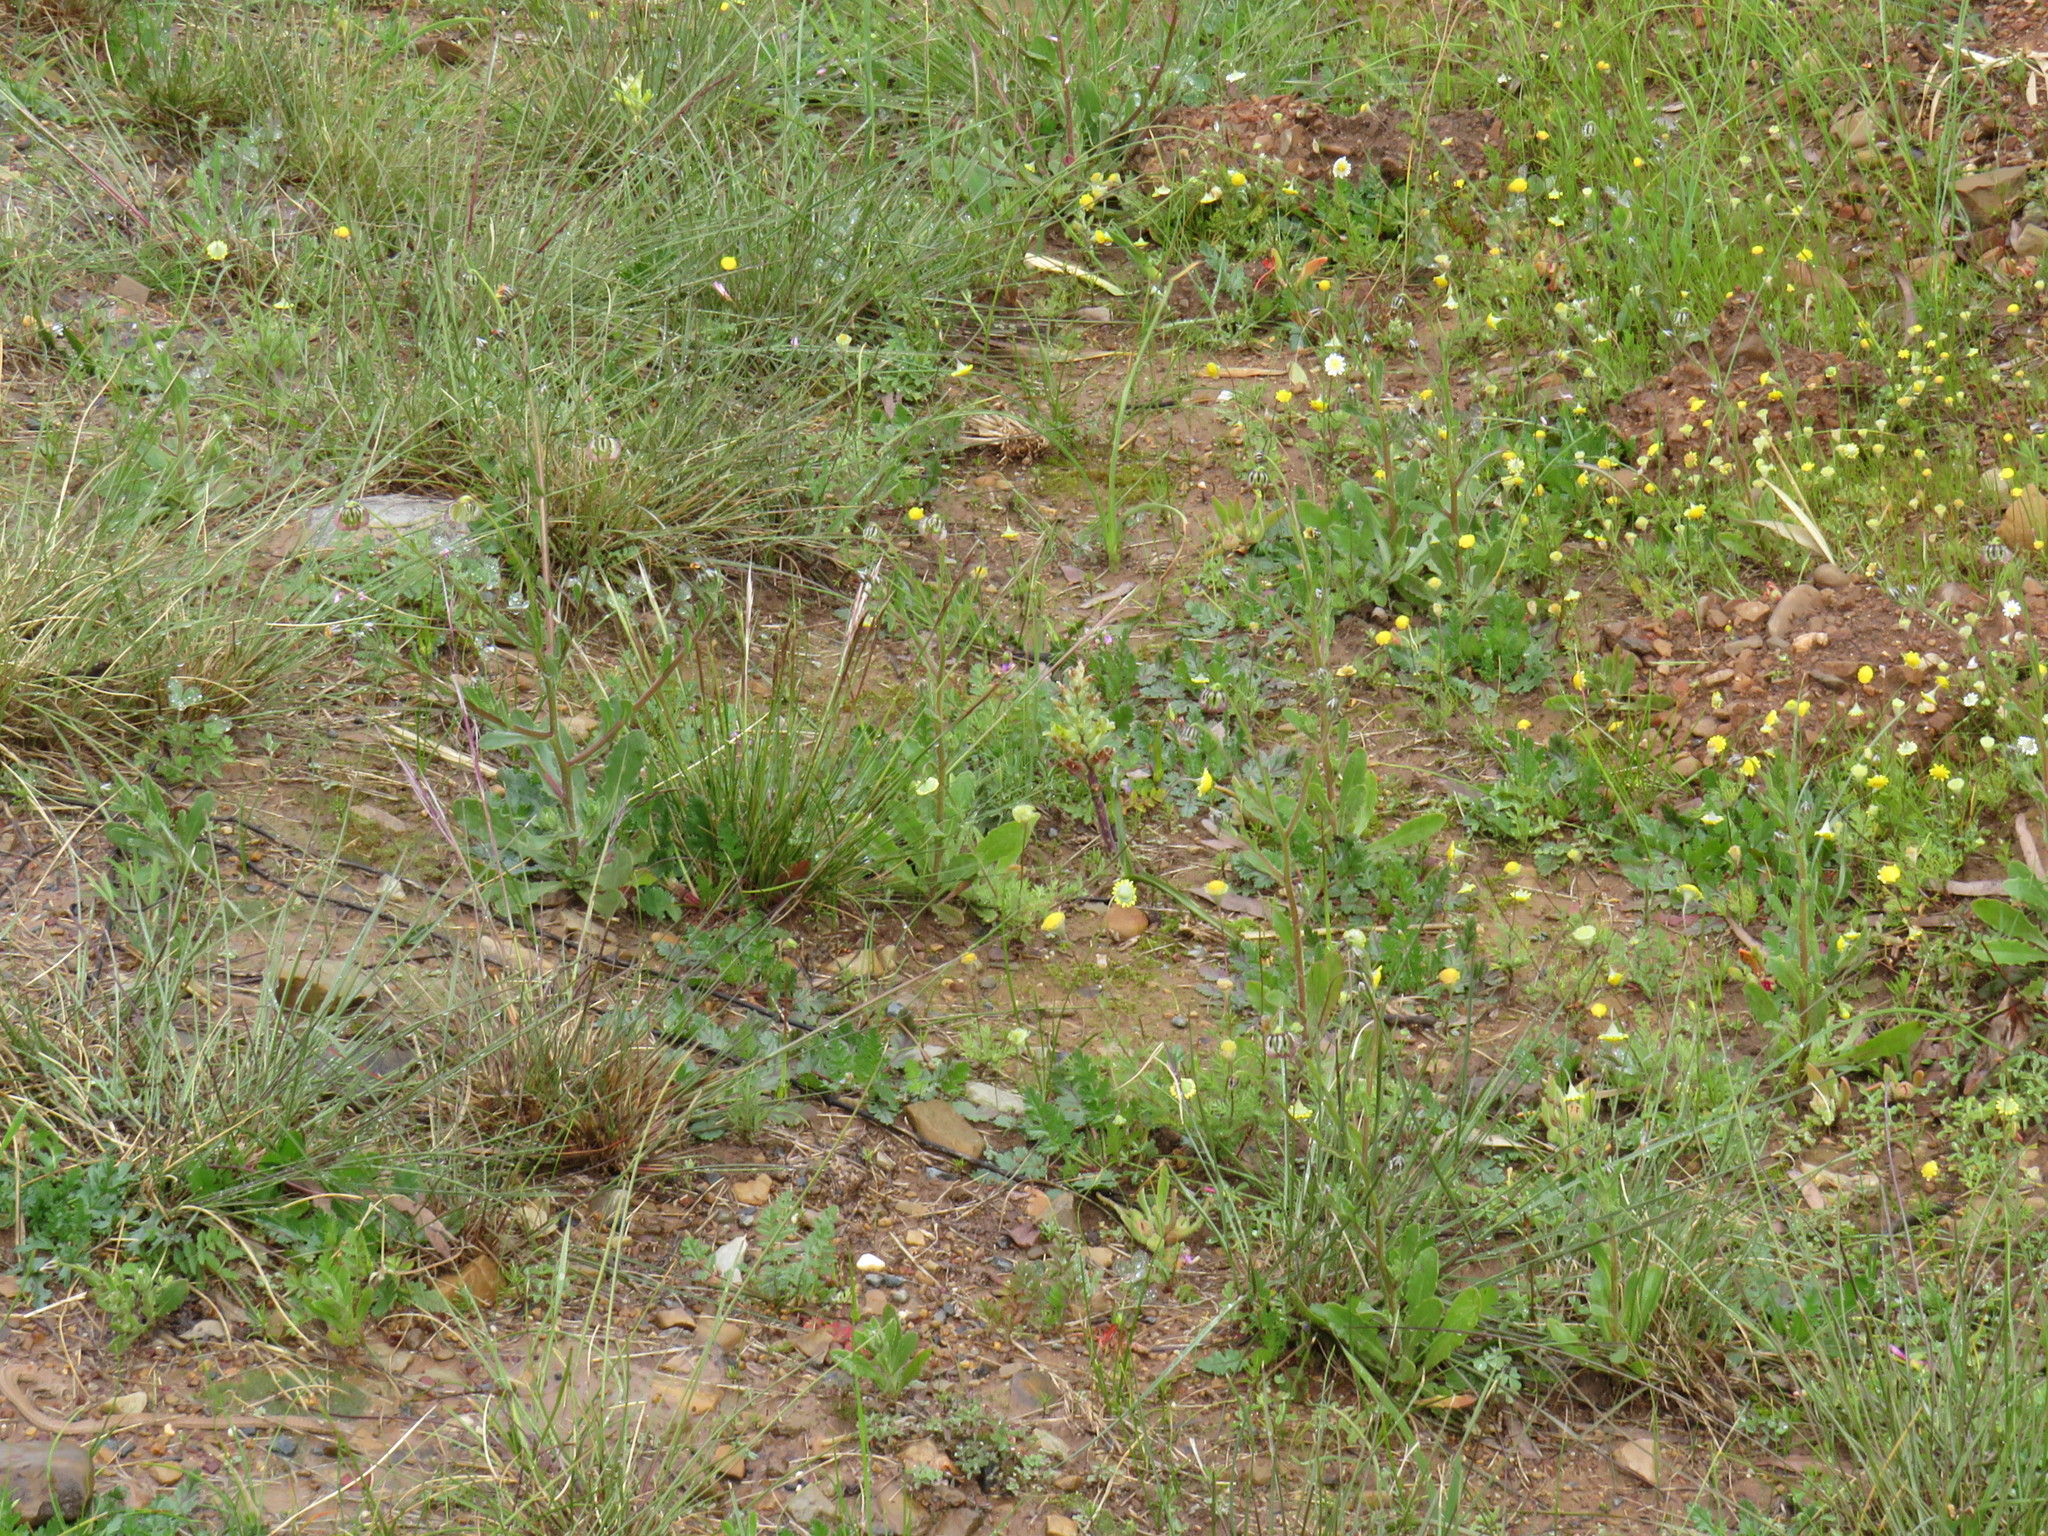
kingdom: Plantae
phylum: Tracheophyta
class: Liliopsida
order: Asparagales
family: Asparagaceae
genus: Lachenalia
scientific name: Lachenalia orchioides
